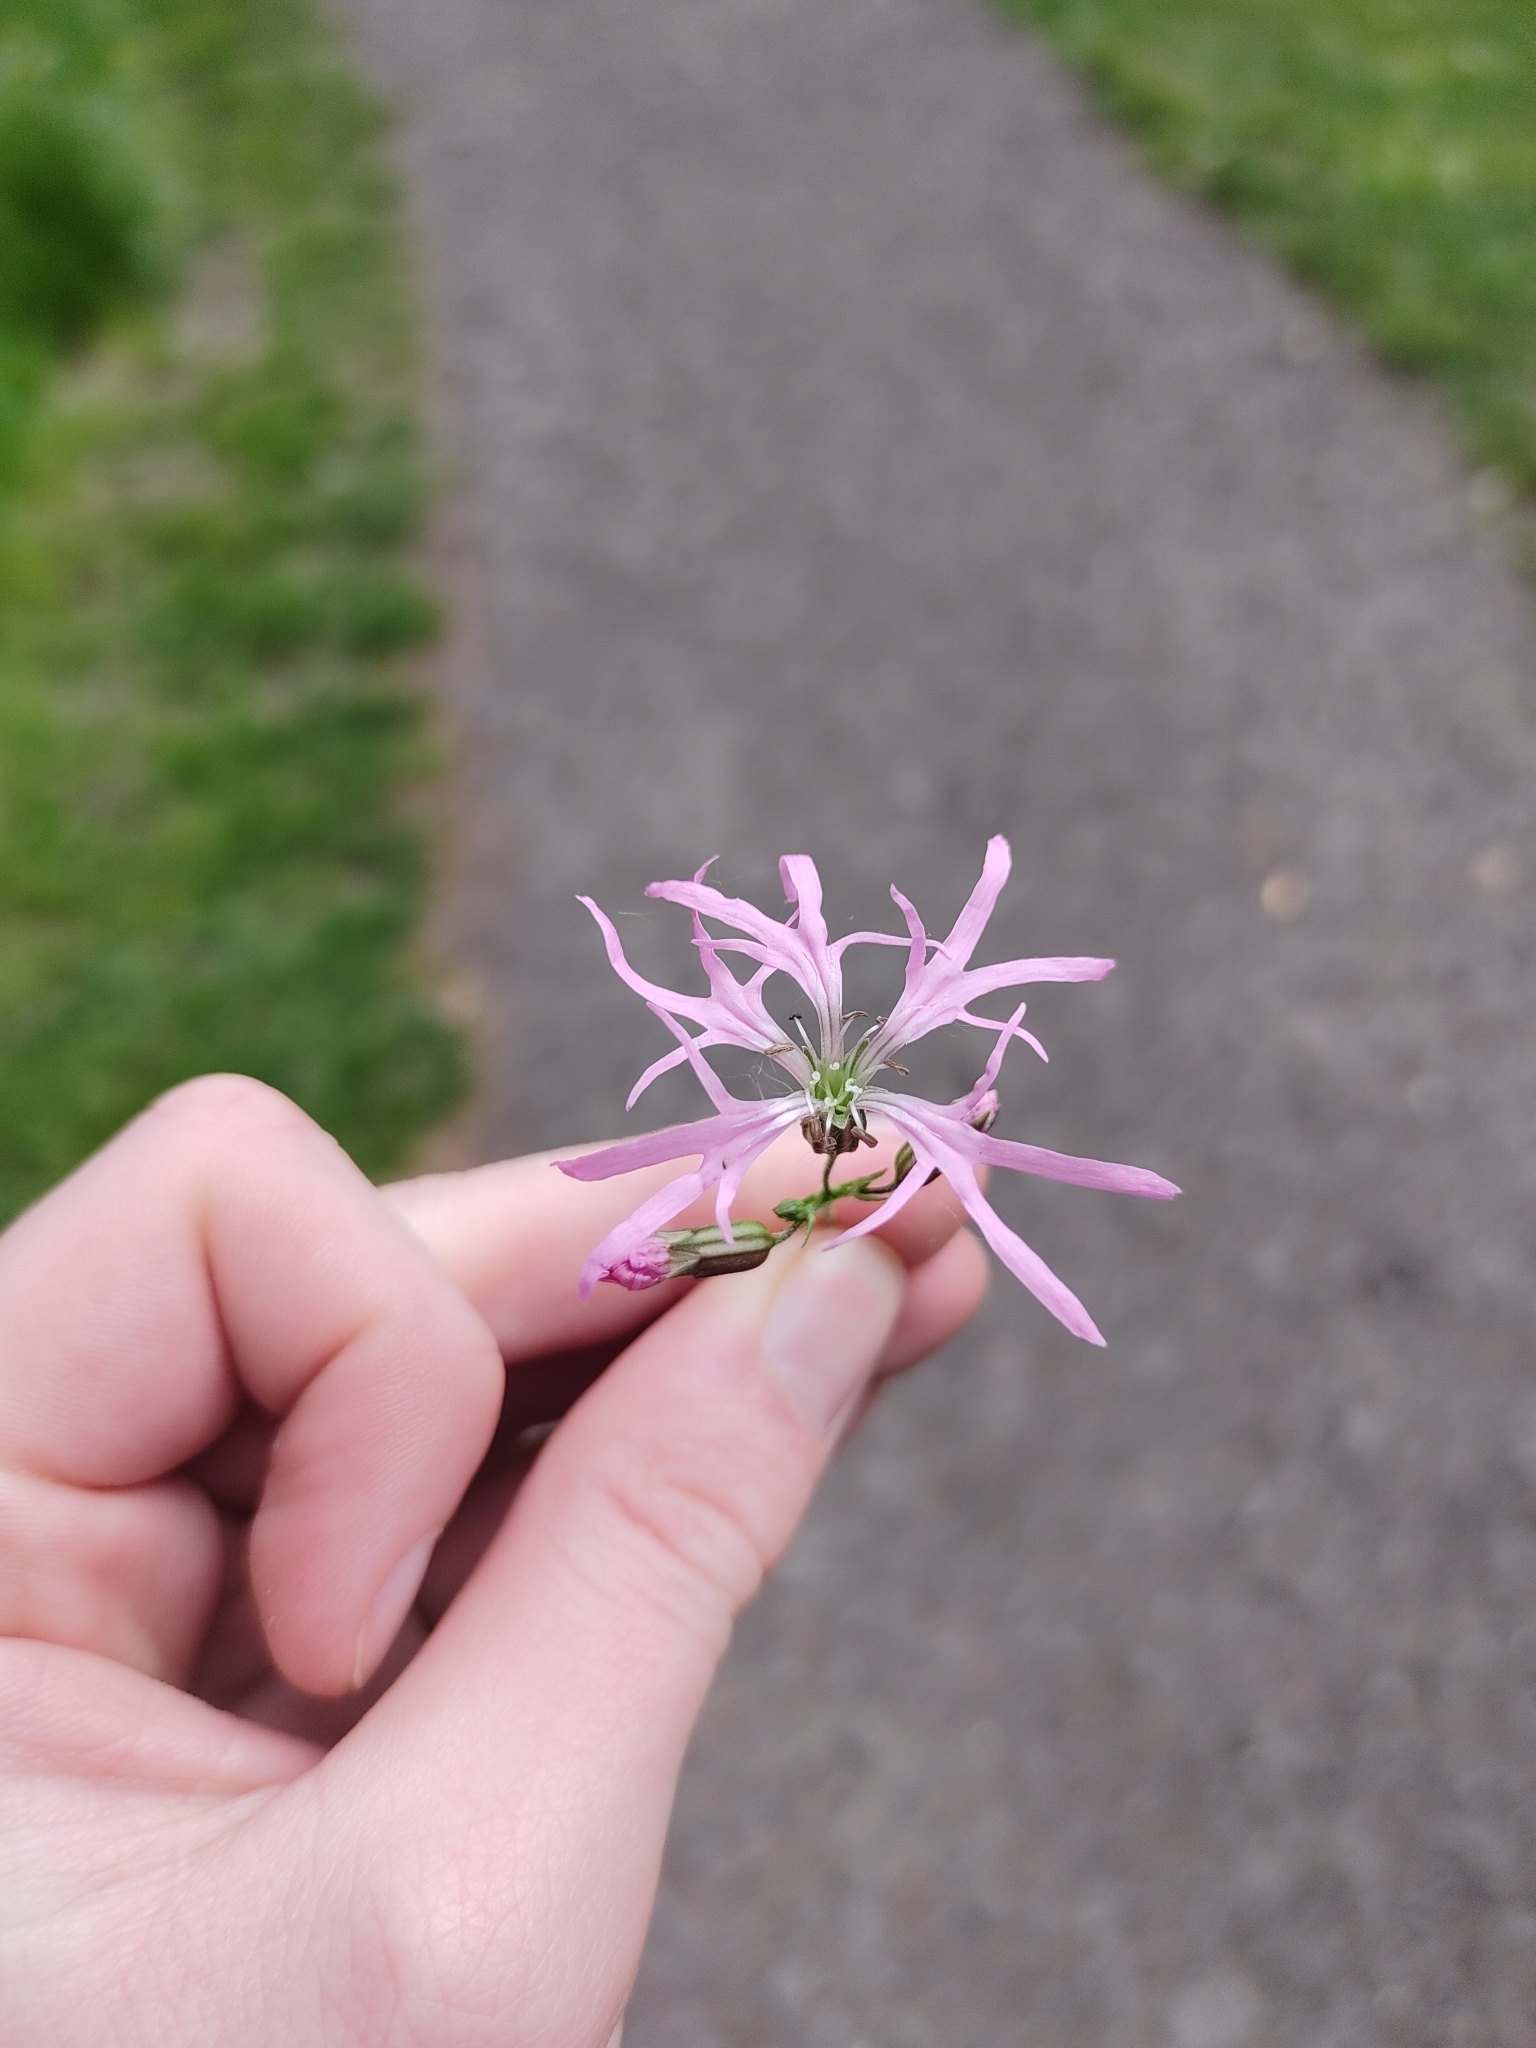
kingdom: Plantae
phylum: Tracheophyta
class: Magnoliopsida
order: Caryophyllales
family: Caryophyllaceae
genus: Silene
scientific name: Silene flos-cuculi
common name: Ragged-robin
